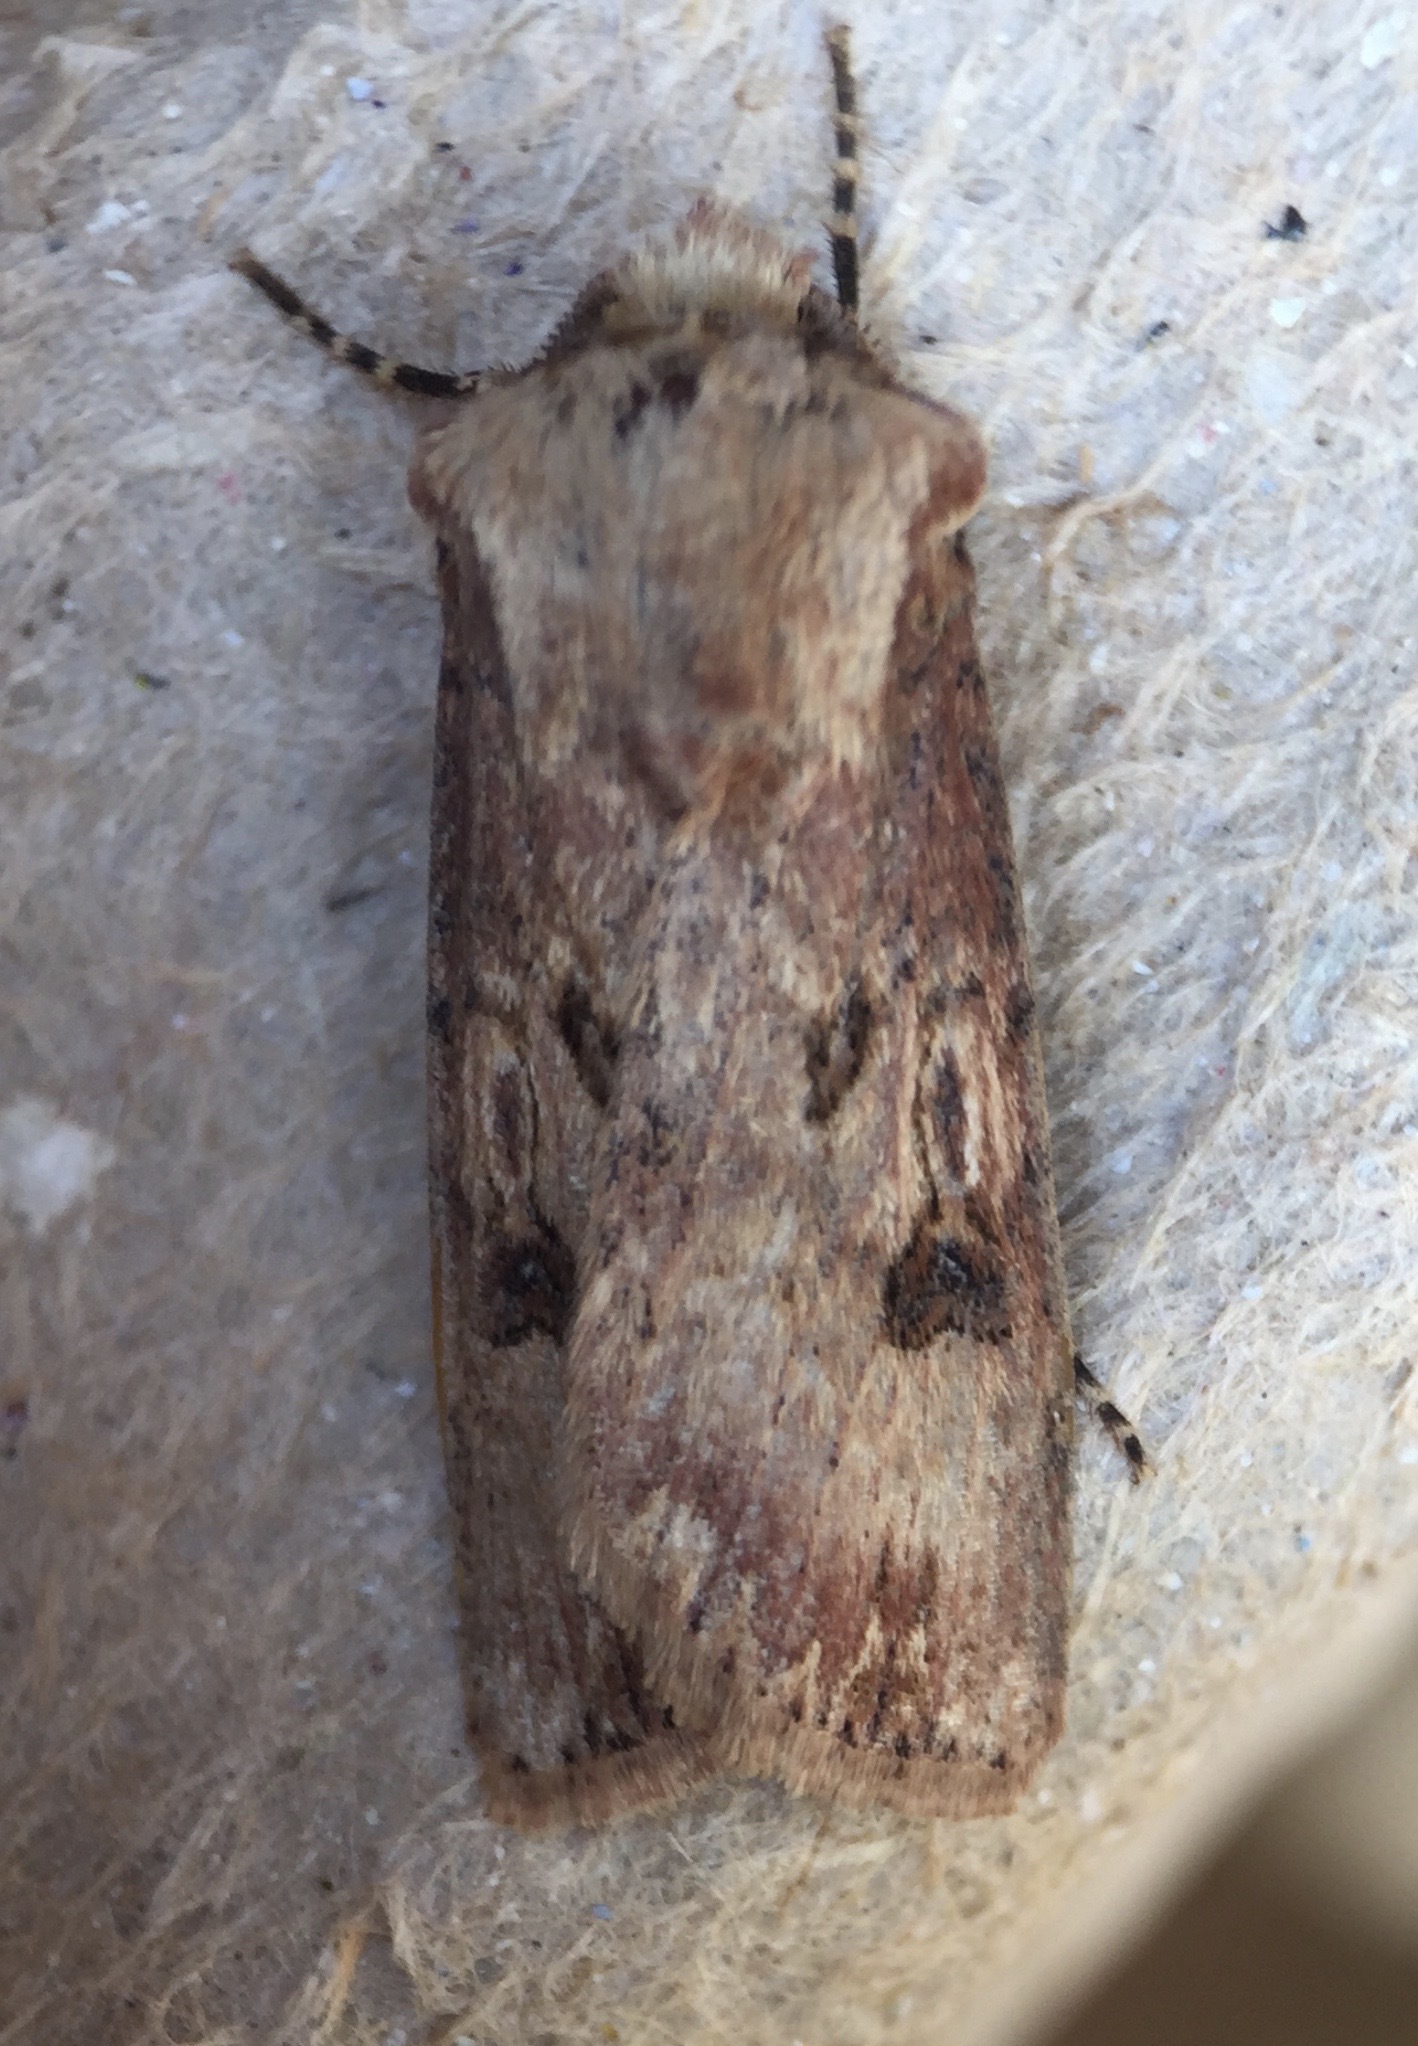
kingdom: Animalia
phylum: Arthropoda
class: Insecta
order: Lepidoptera
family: Noctuidae
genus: Agrotis
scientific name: Agrotis puta
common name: Shuttle-shaped dart
